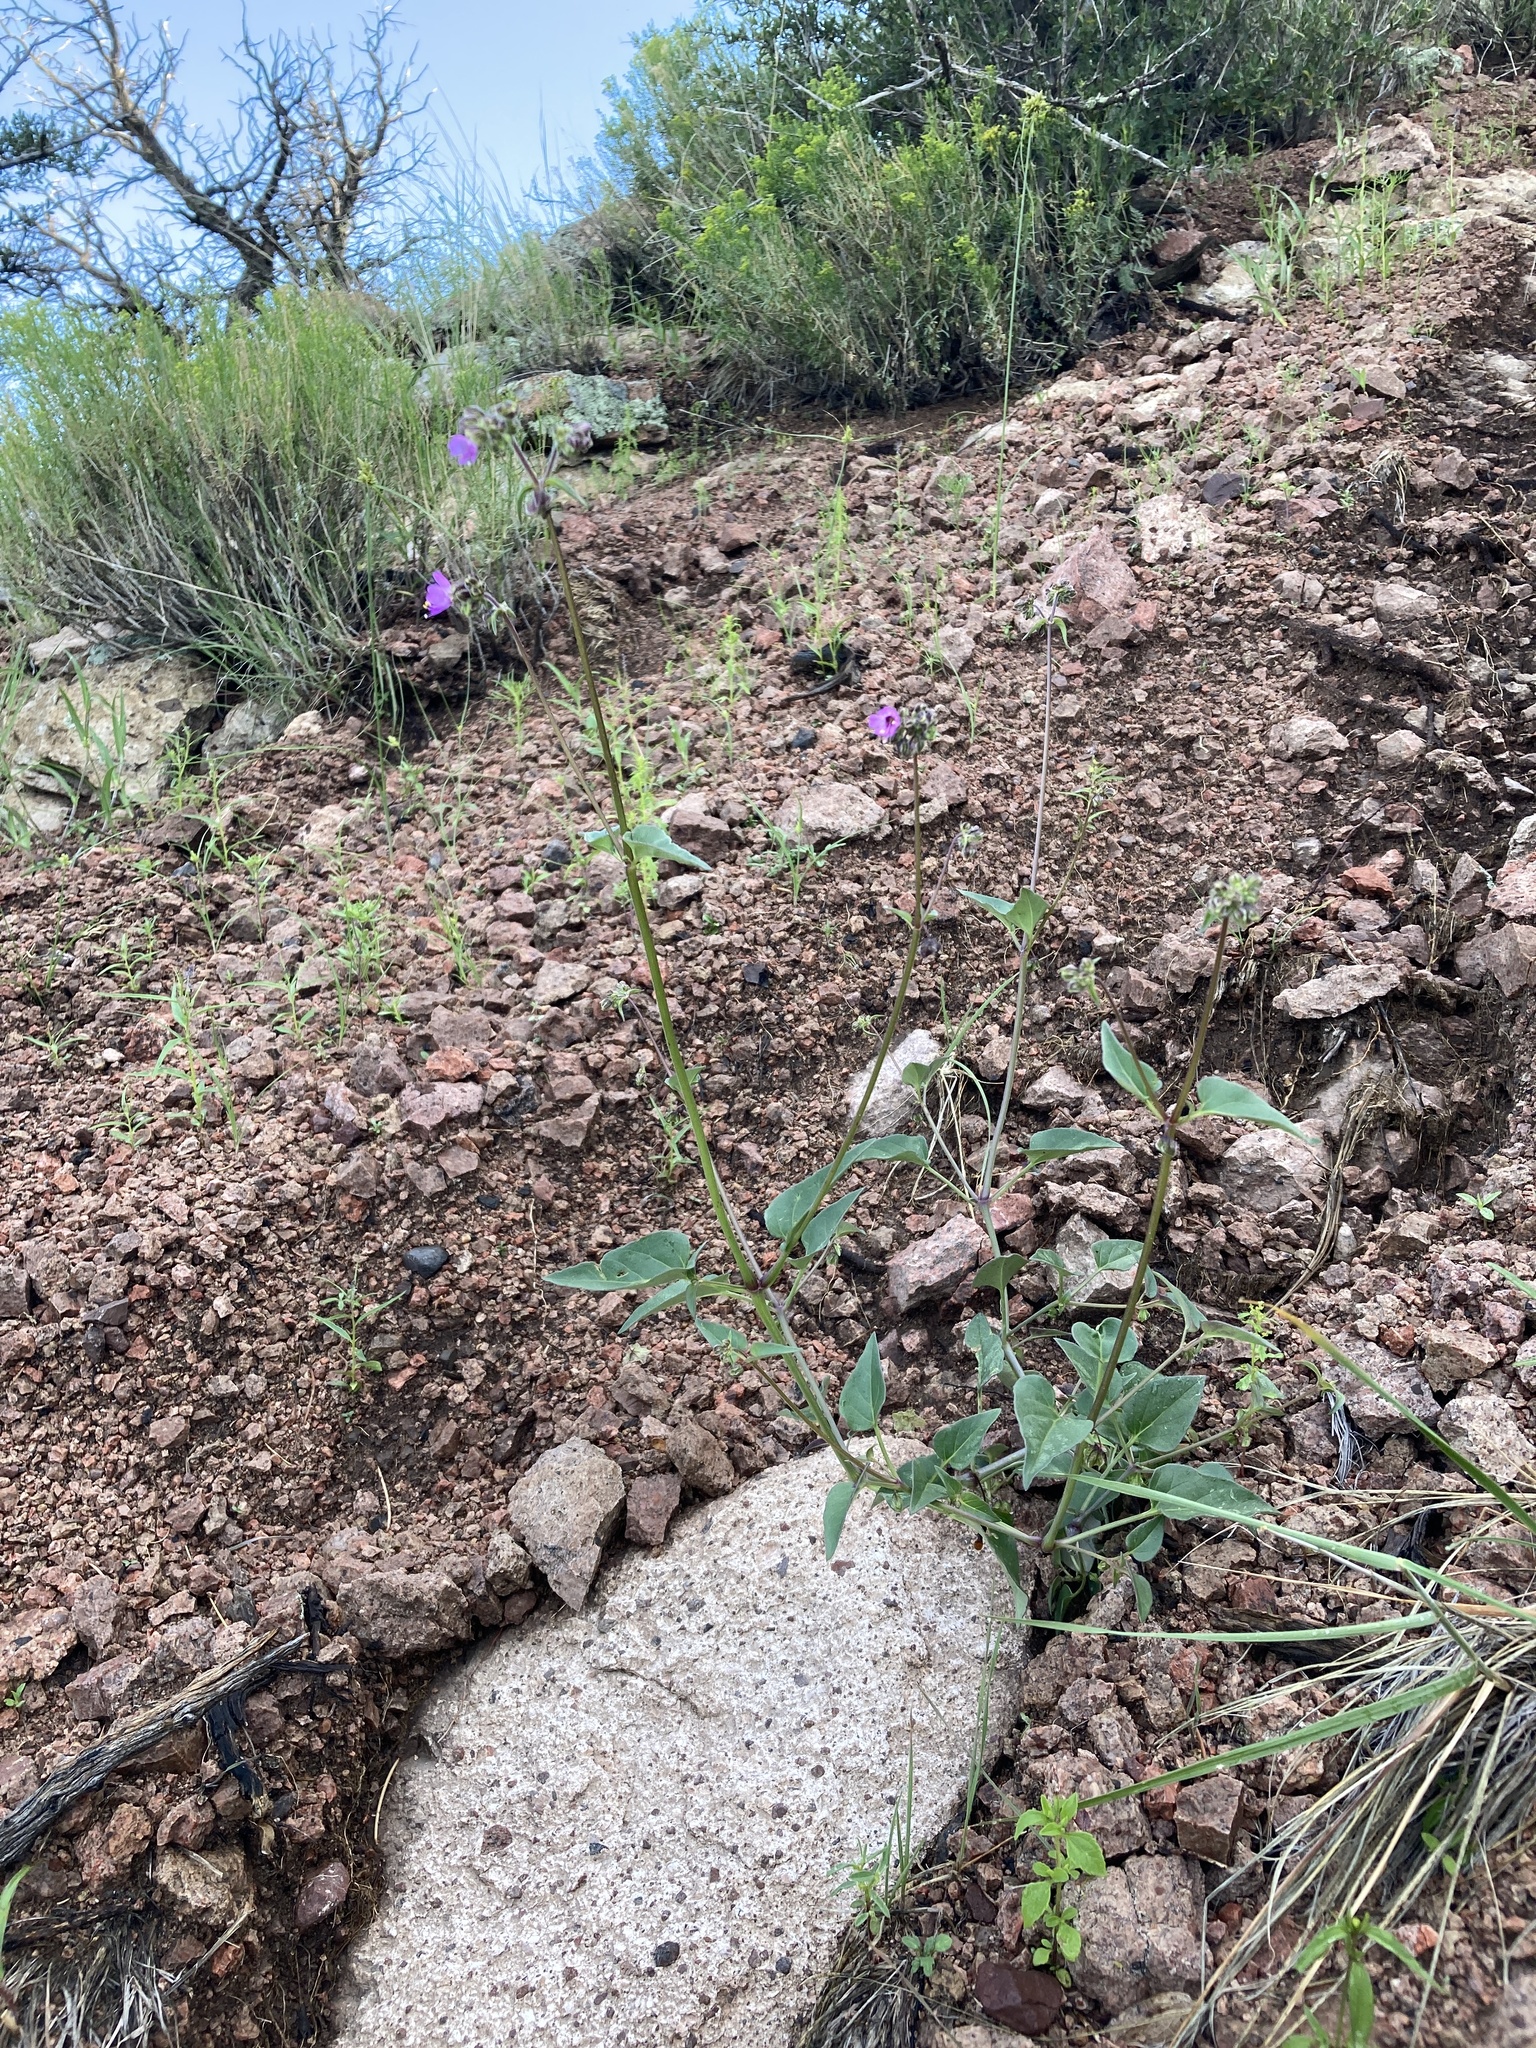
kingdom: Plantae
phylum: Tracheophyta
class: Magnoliopsida
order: Caryophyllales
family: Nyctaginaceae
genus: Mirabilis
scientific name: Mirabilis melanotricha
